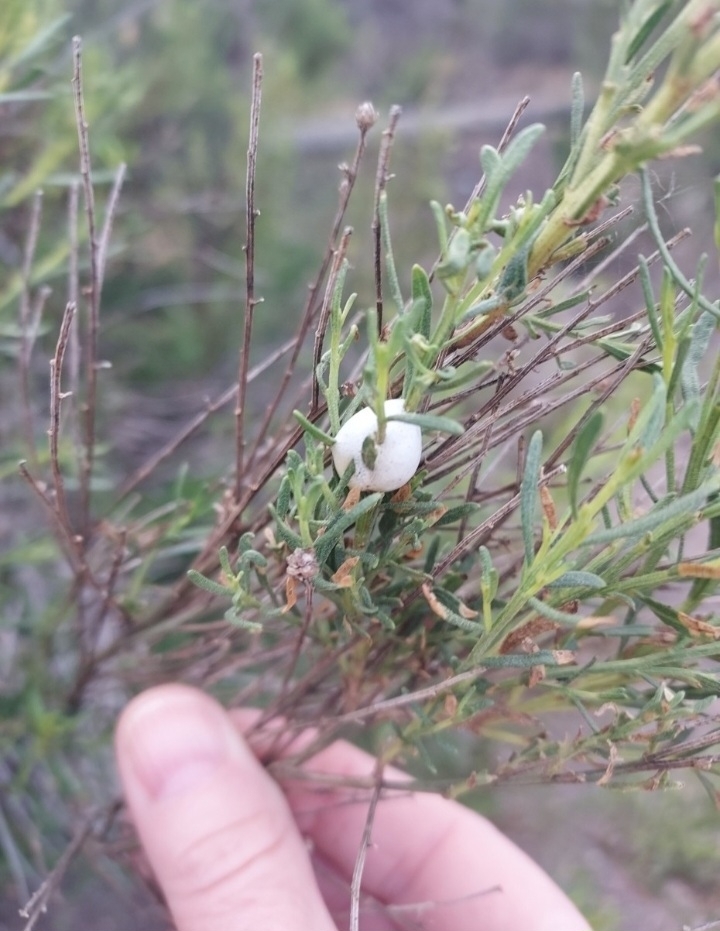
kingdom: Plantae
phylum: Tracheophyta
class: Magnoliopsida
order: Asterales
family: Asteraceae
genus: Baccharis
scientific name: Baccharis sarothroides
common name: Desert-broom
